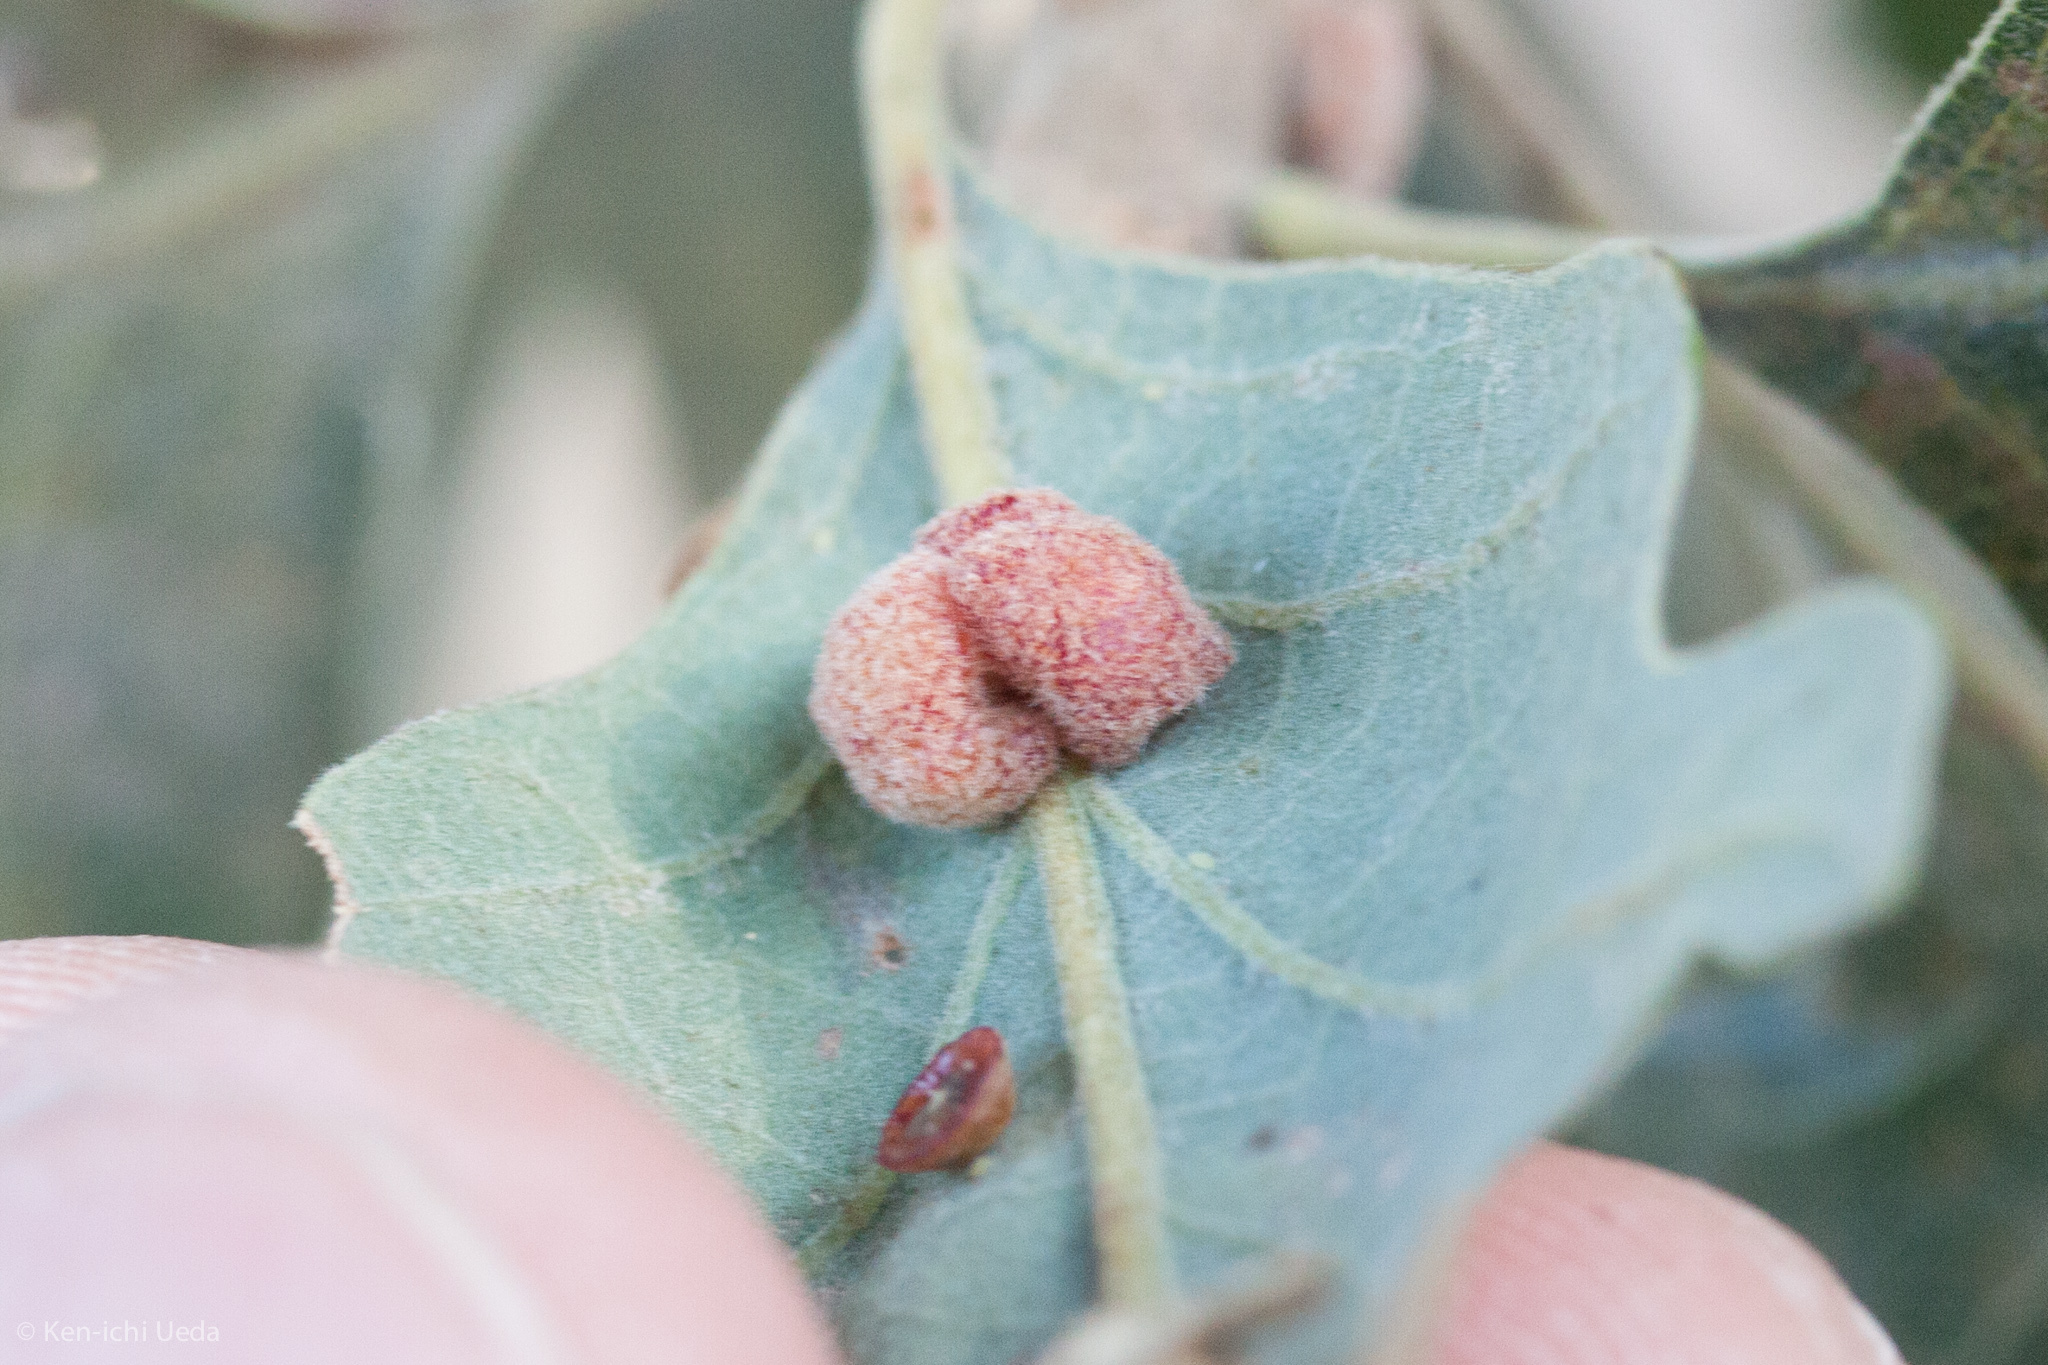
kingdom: Animalia
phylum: Arthropoda
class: Insecta
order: Hymenoptera
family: Cynipidae
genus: Andricus
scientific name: Andricus
